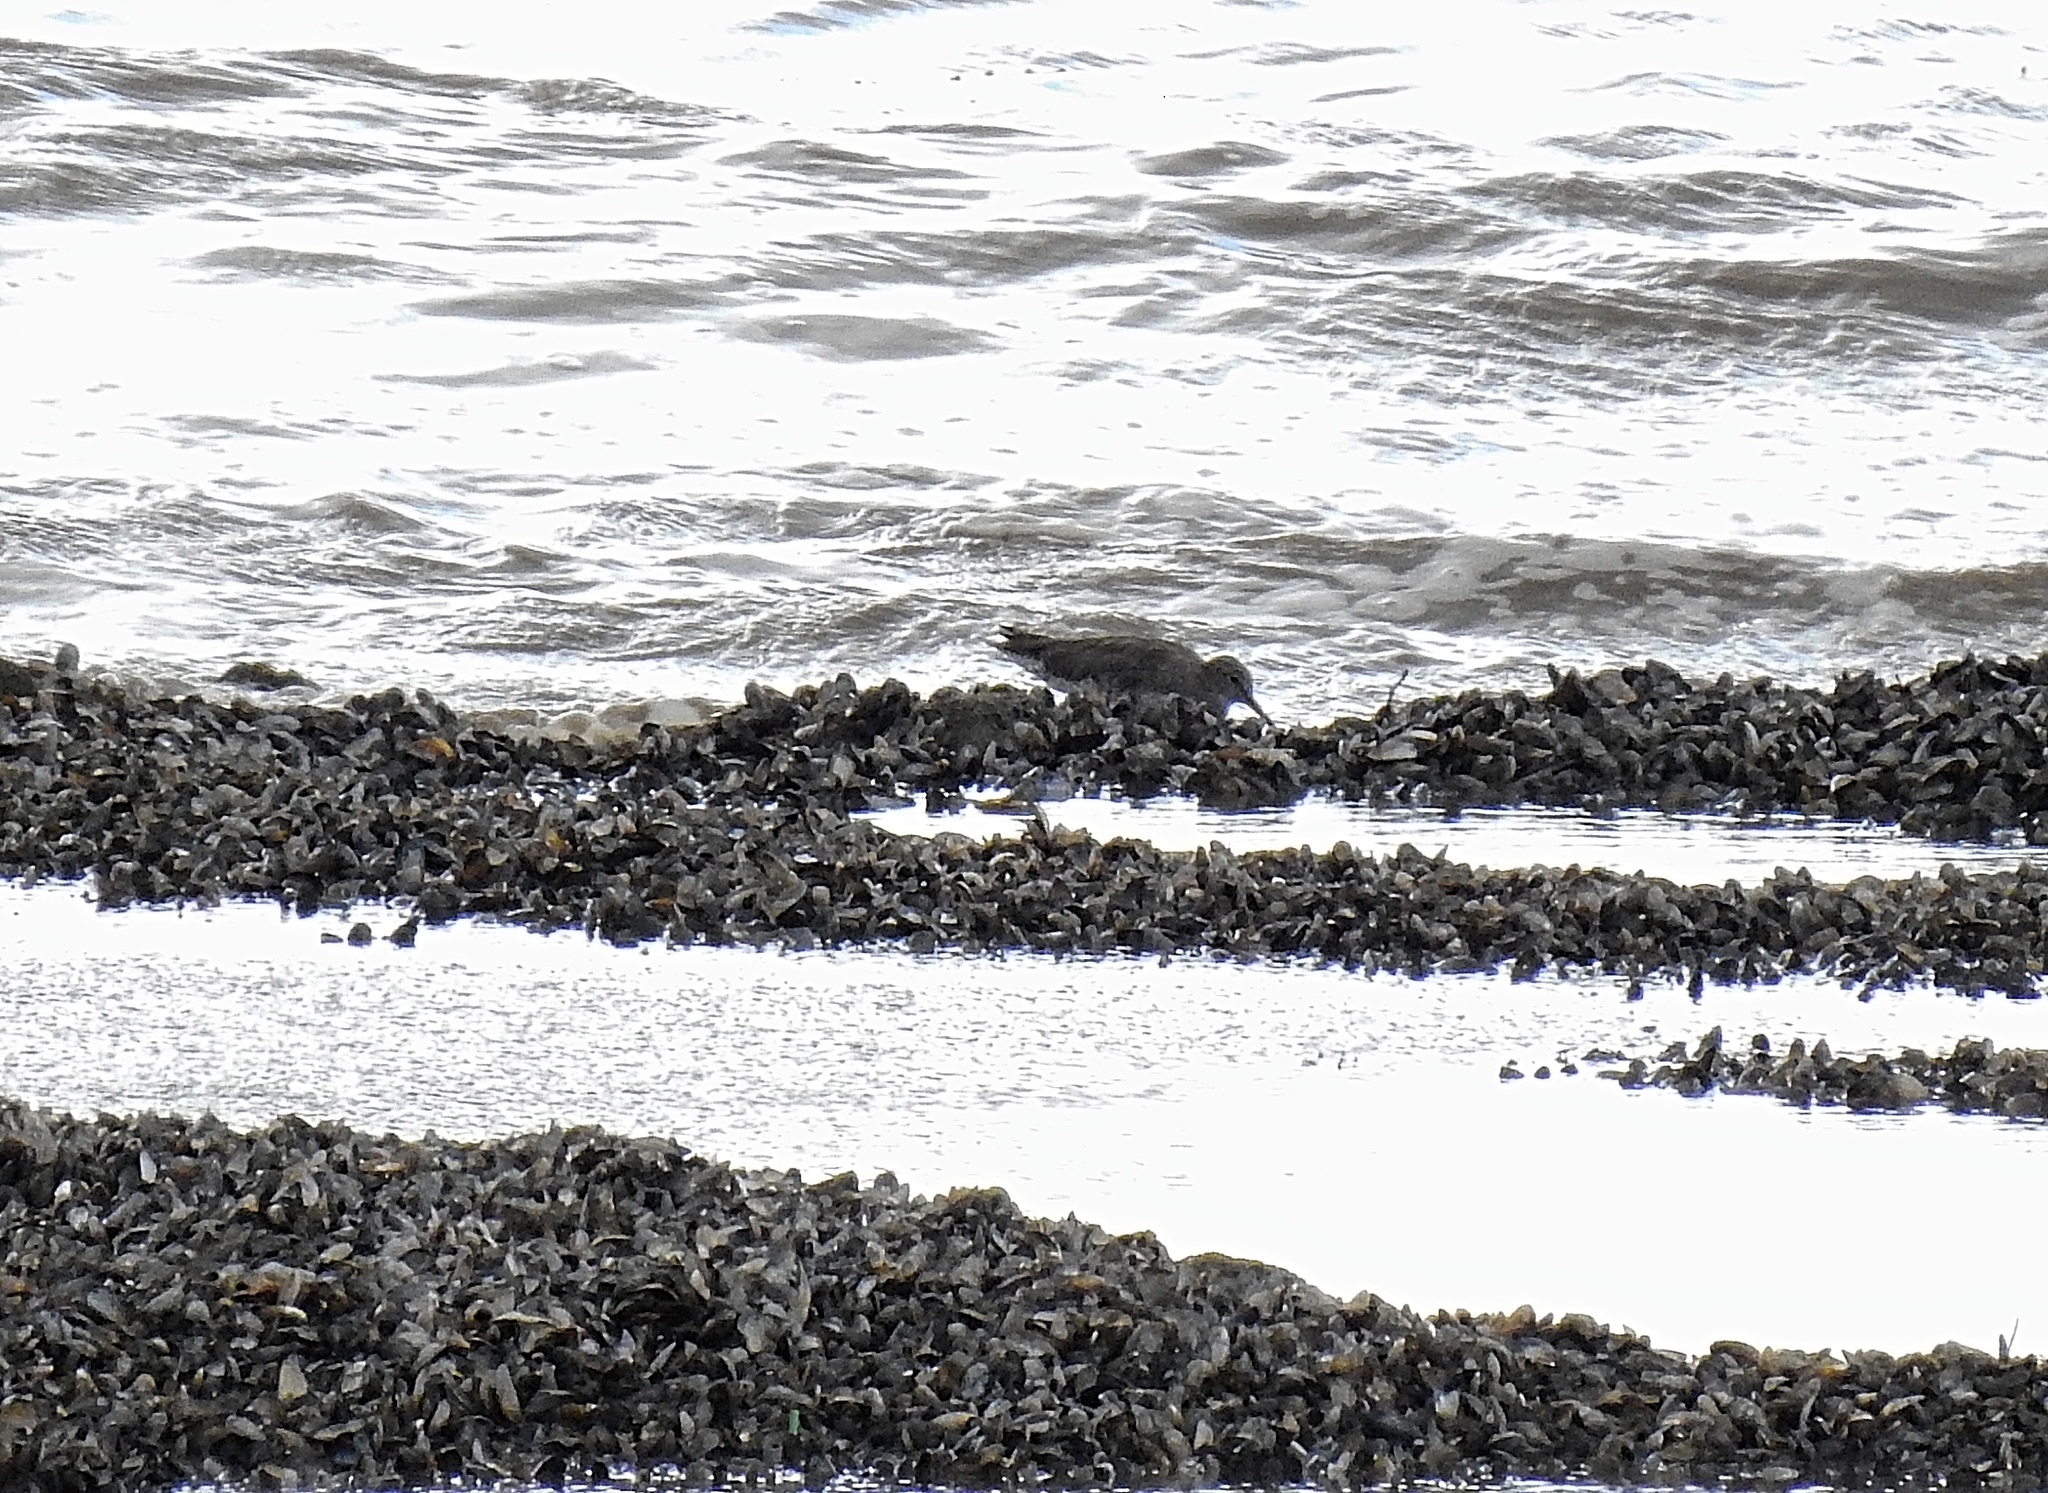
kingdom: Animalia
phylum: Chordata
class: Aves
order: Charadriiformes
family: Scolopacidae
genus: Tringa
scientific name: Tringa totanus
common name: Common redshank
